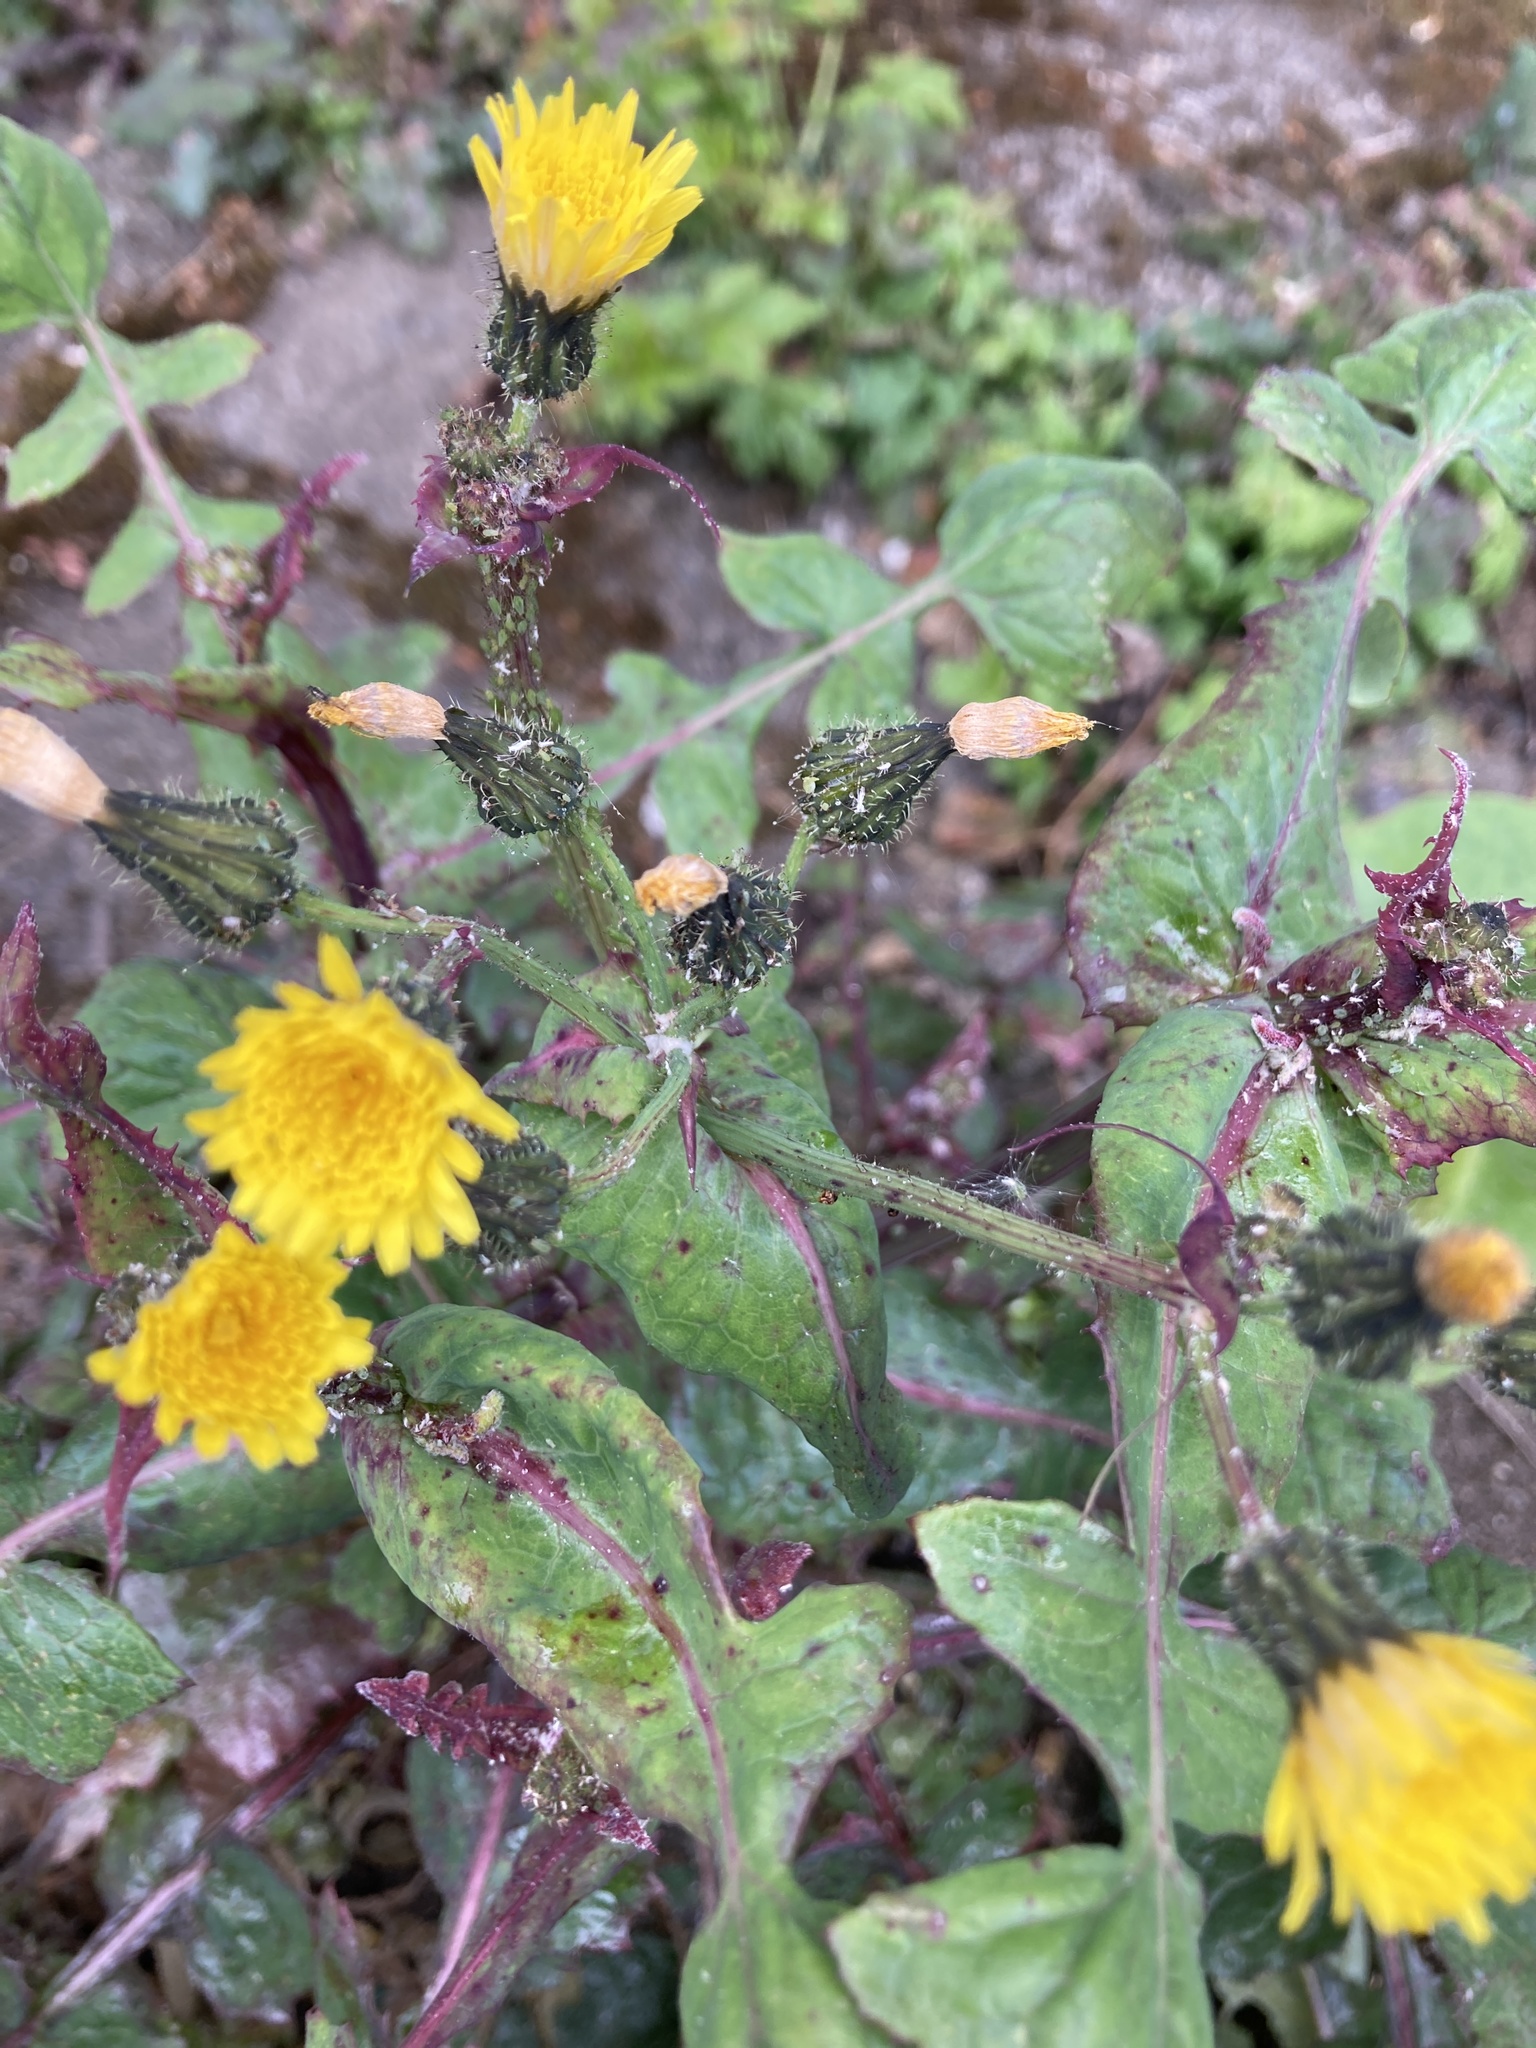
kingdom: Plantae
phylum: Tracheophyta
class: Magnoliopsida
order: Asterales
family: Asteraceae
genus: Sonchus
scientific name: Sonchus oleraceus
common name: Common sowthistle
